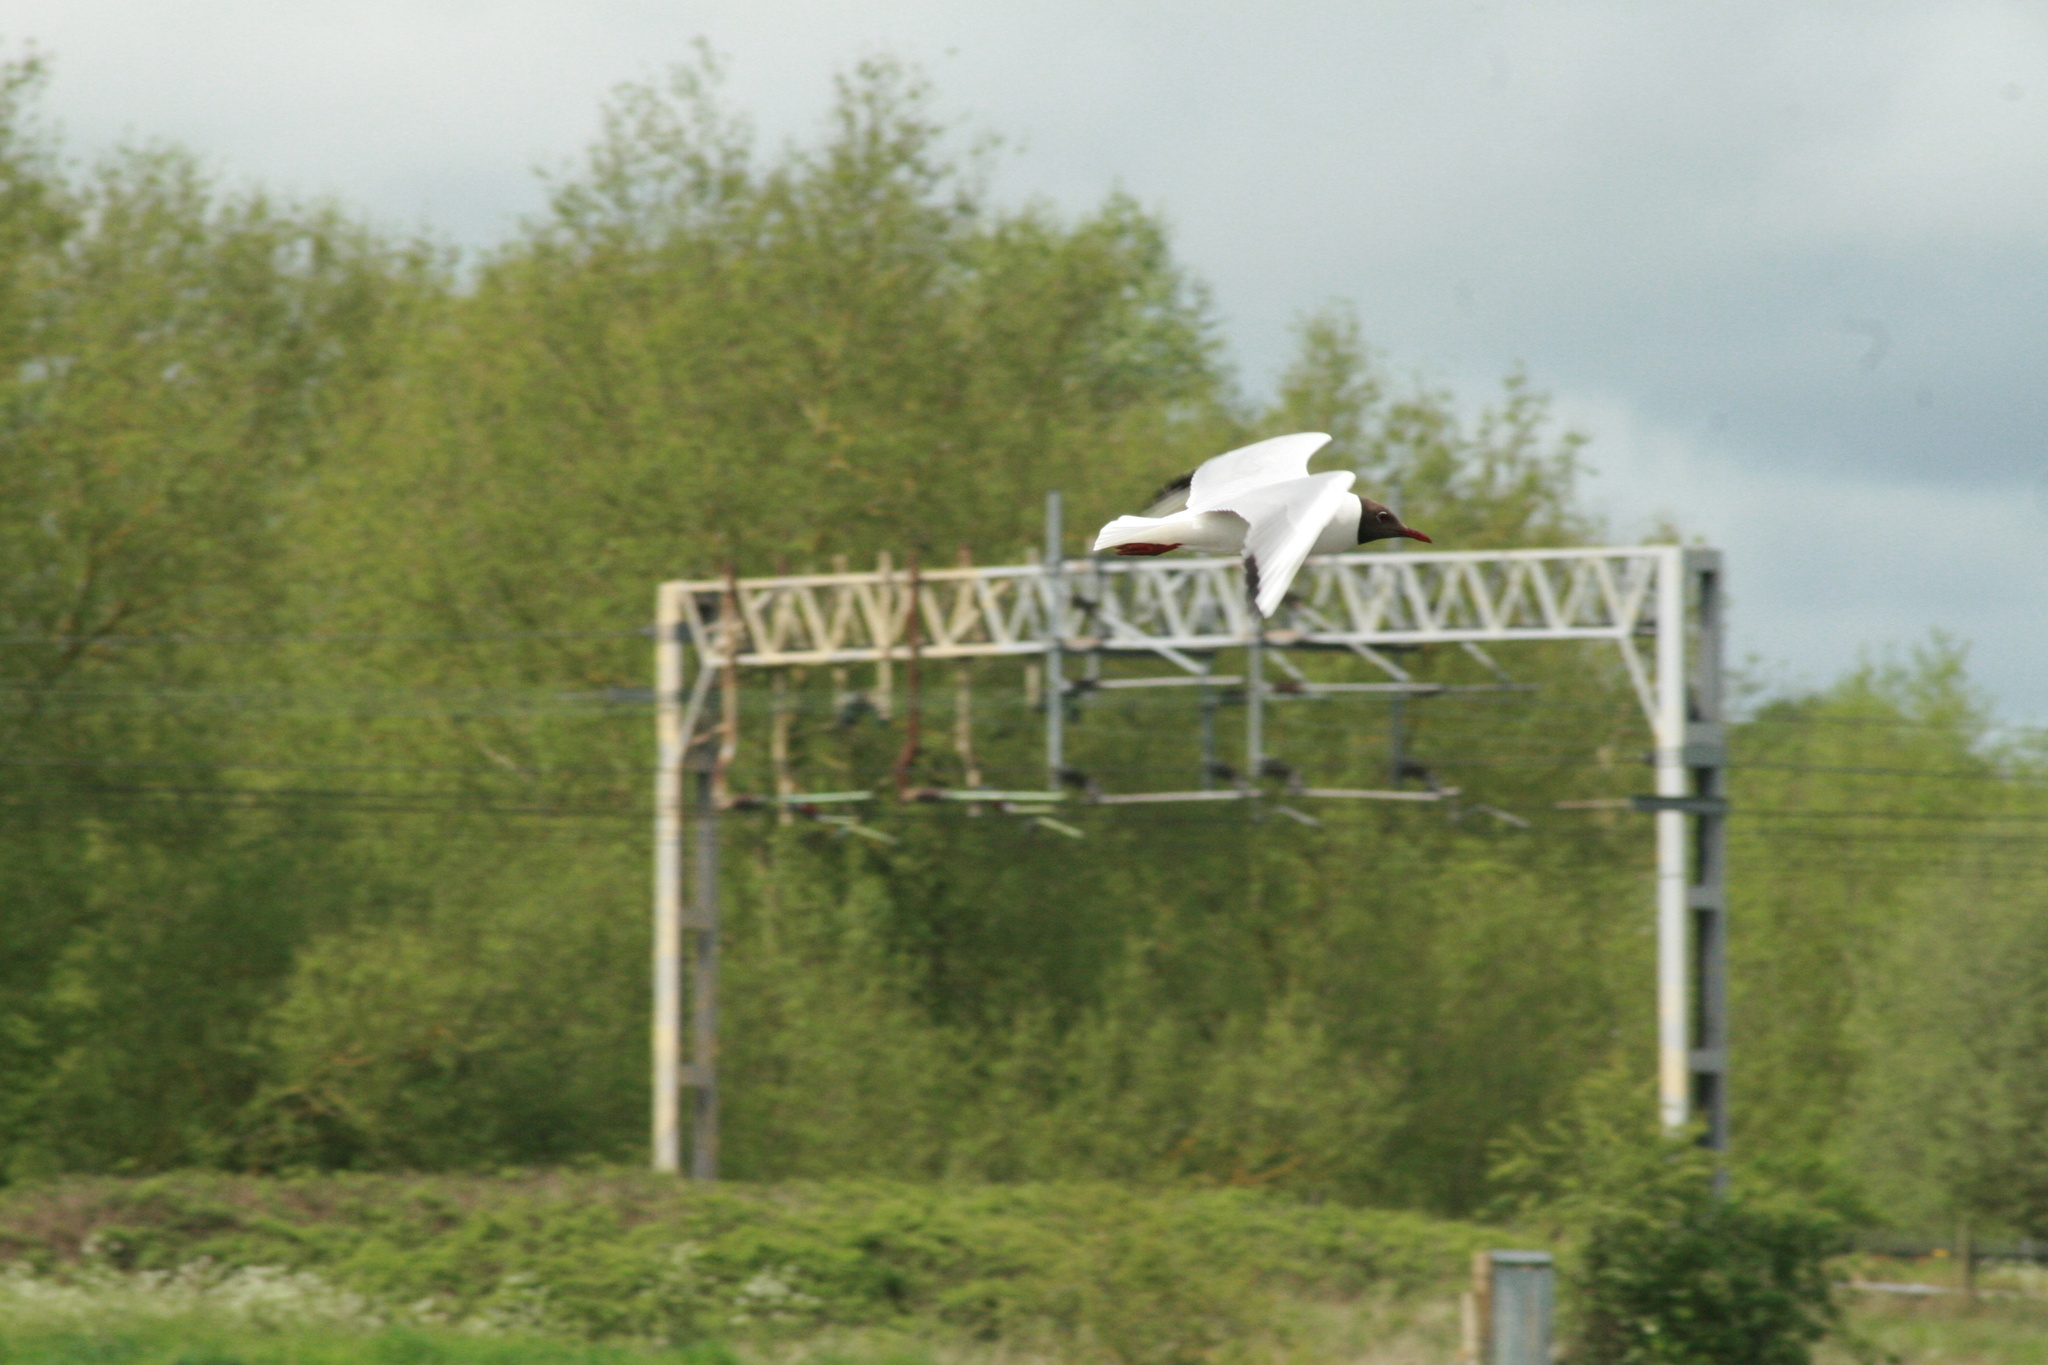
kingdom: Animalia
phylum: Chordata
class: Aves
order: Charadriiformes
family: Laridae
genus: Chroicocephalus
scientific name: Chroicocephalus ridibundus
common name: Black-headed gull
